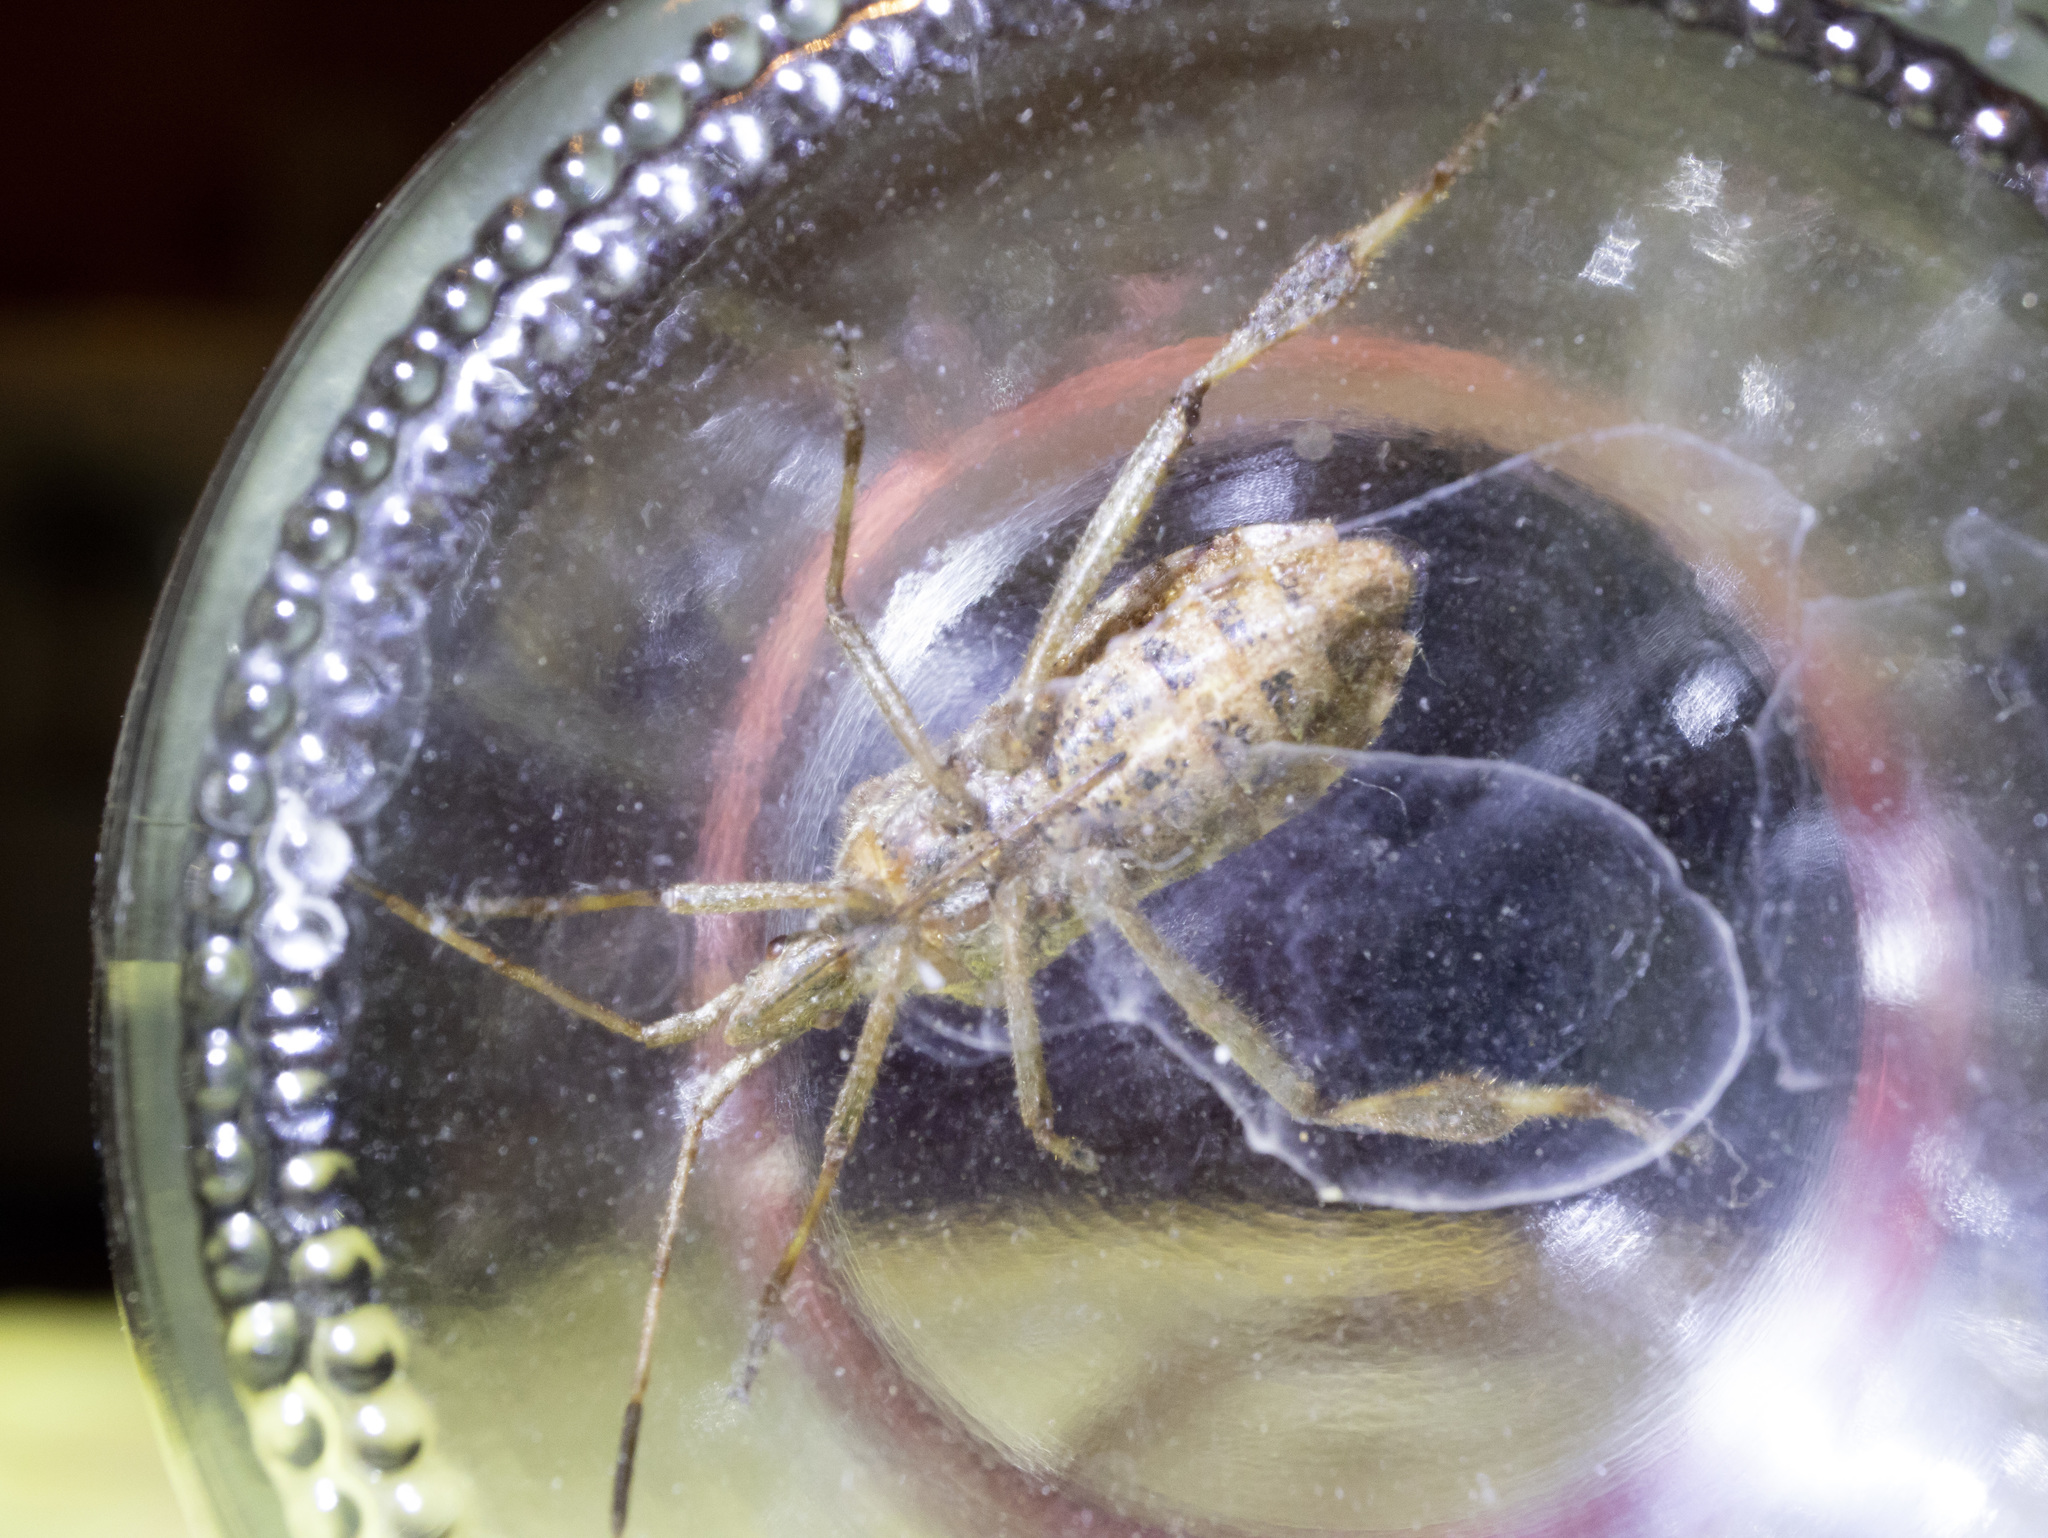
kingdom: Animalia
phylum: Arthropoda
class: Insecta
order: Hemiptera
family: Coreidae
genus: Leptoglossus
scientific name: Leptoglossus occidentalis
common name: Western conifer-seed bug
